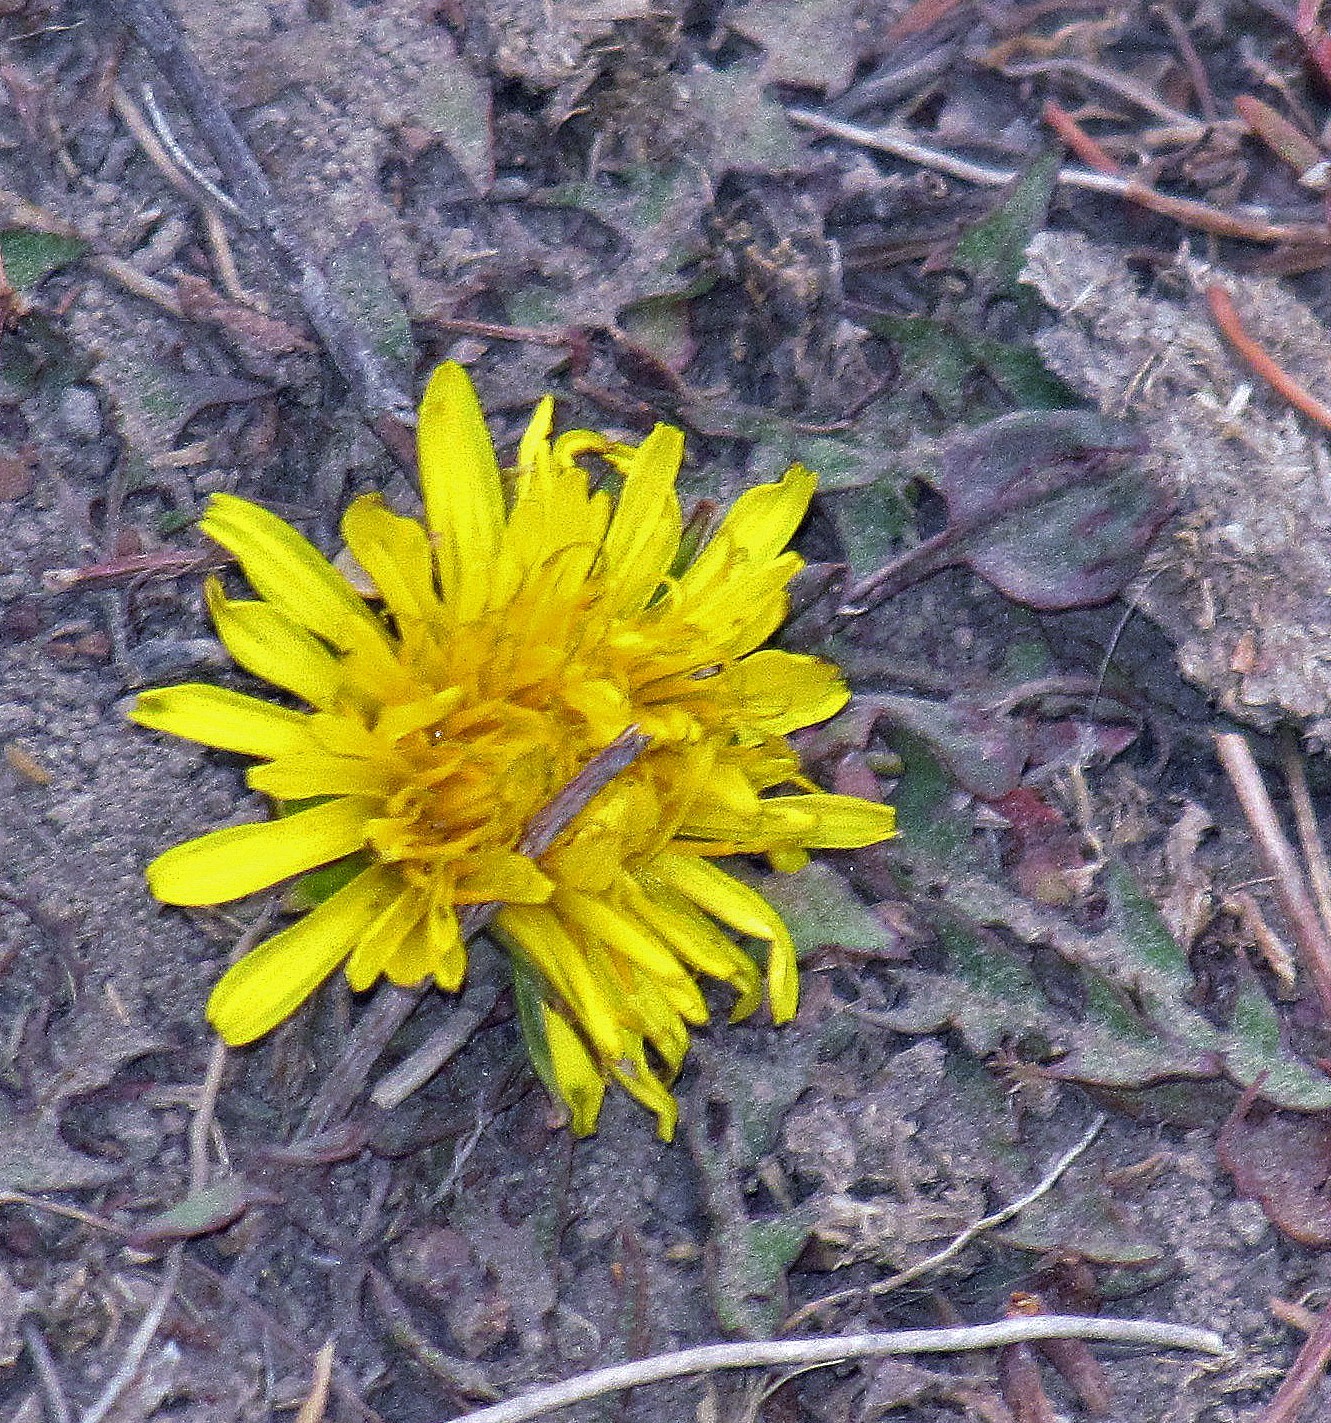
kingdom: Plantae
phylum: Tracheophyta
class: Magnoliopsida
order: Asterales
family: Asteraceae
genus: Taraxacum
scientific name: Taraxacum officinale
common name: Common dandelion
